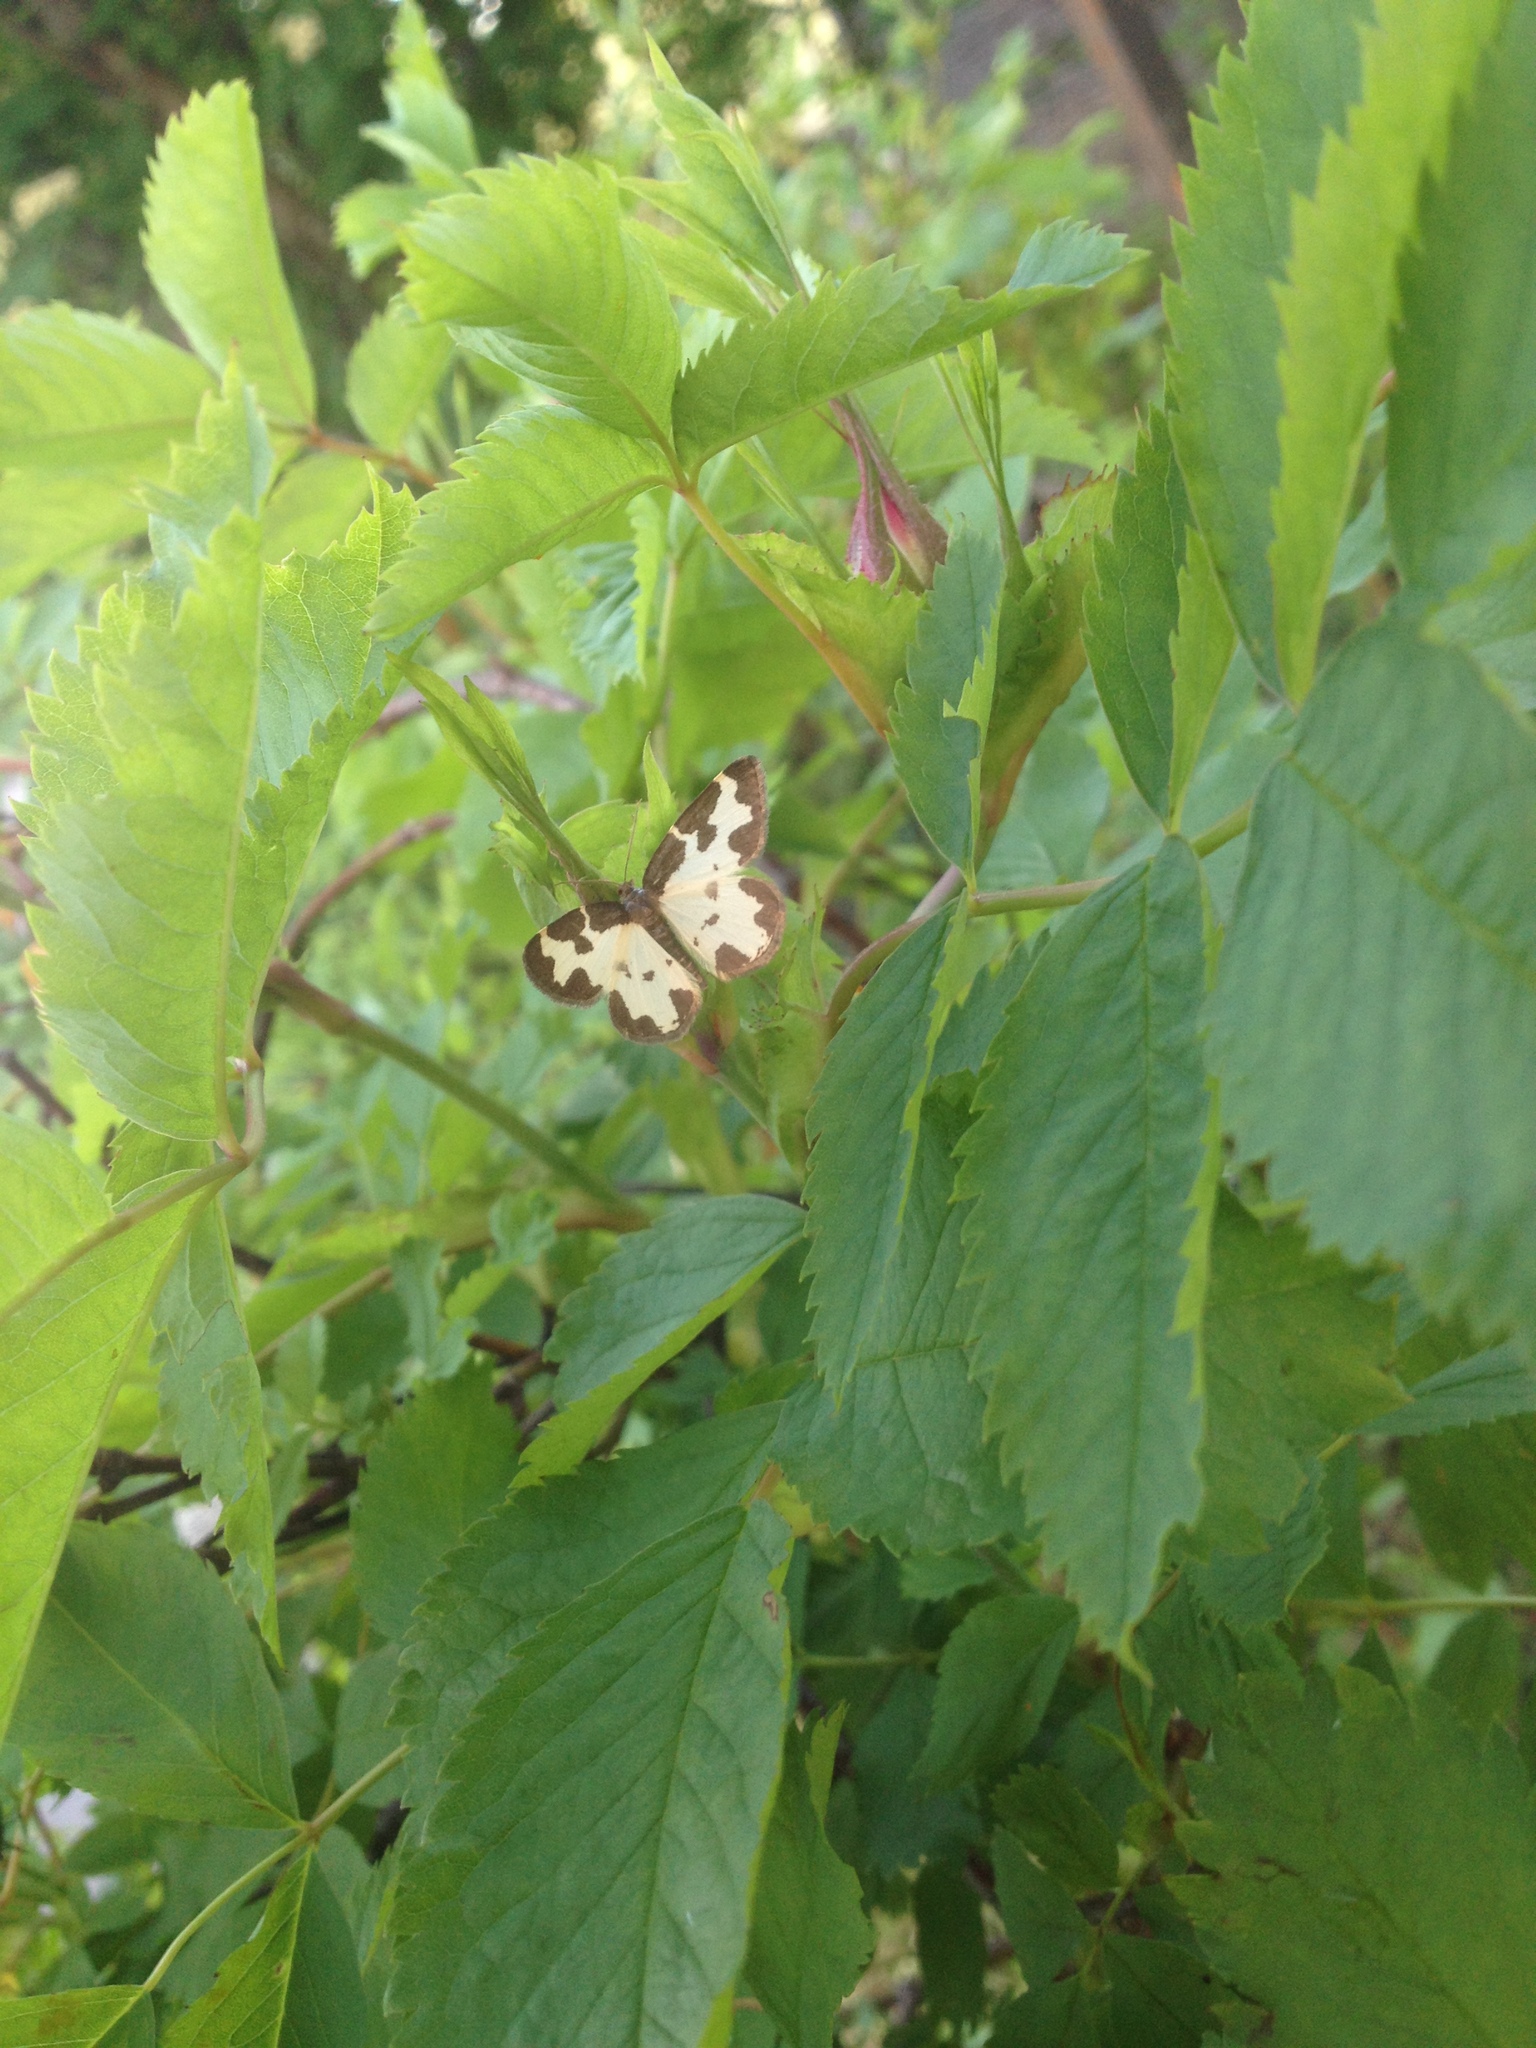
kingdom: Animalia
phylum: Arthropoda
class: Insecta
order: Lepidoptera
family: Geometridae
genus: Lomaspilis
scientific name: Lomaspilis marginata
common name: Clouded border
